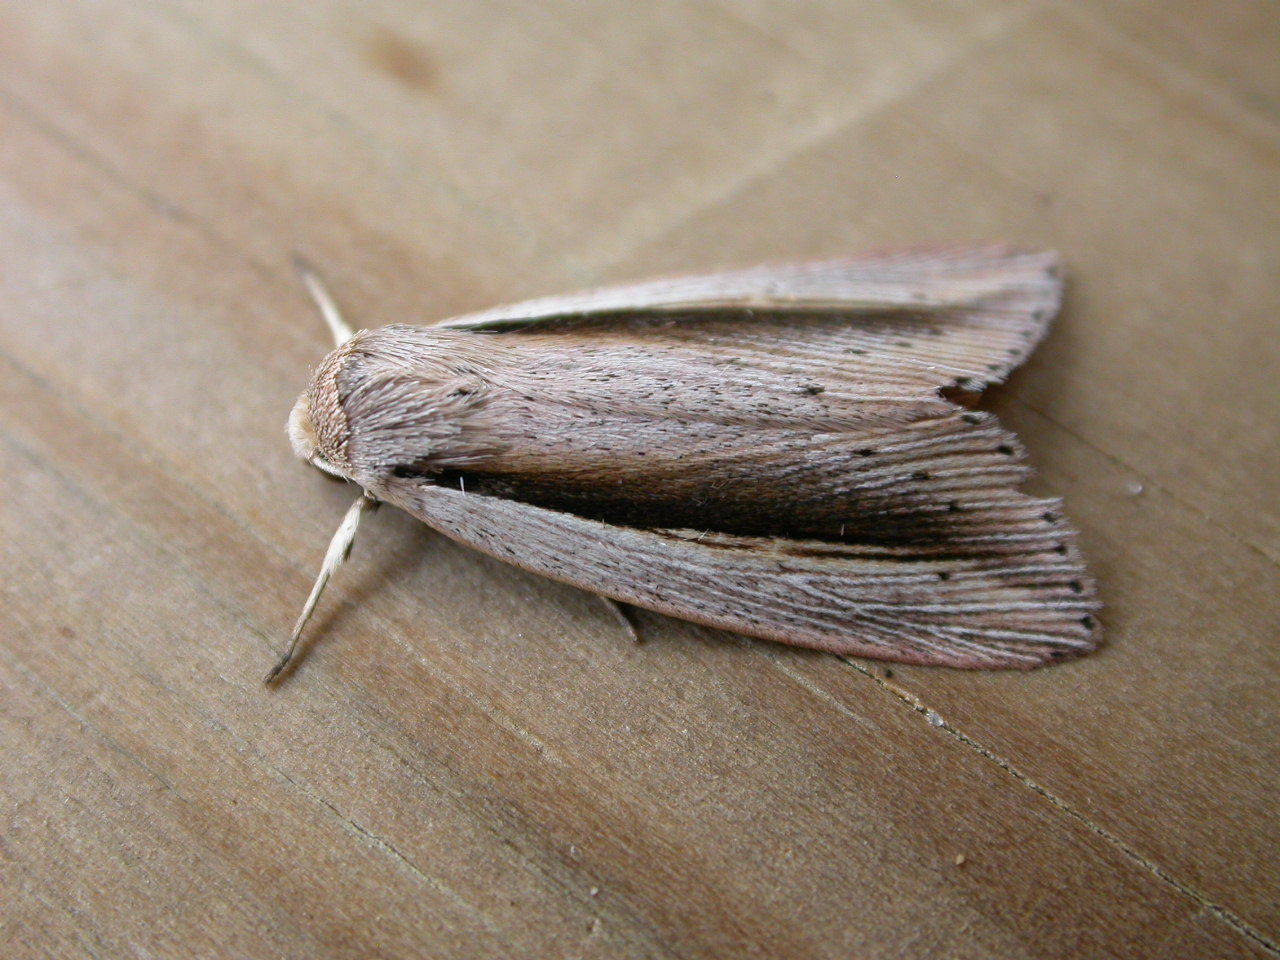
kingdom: Animalia
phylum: Arthropoda
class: Insecta
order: Lepidoptera
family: Noctuidae
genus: Senta
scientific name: Senta flammea
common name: Flame wainscot
